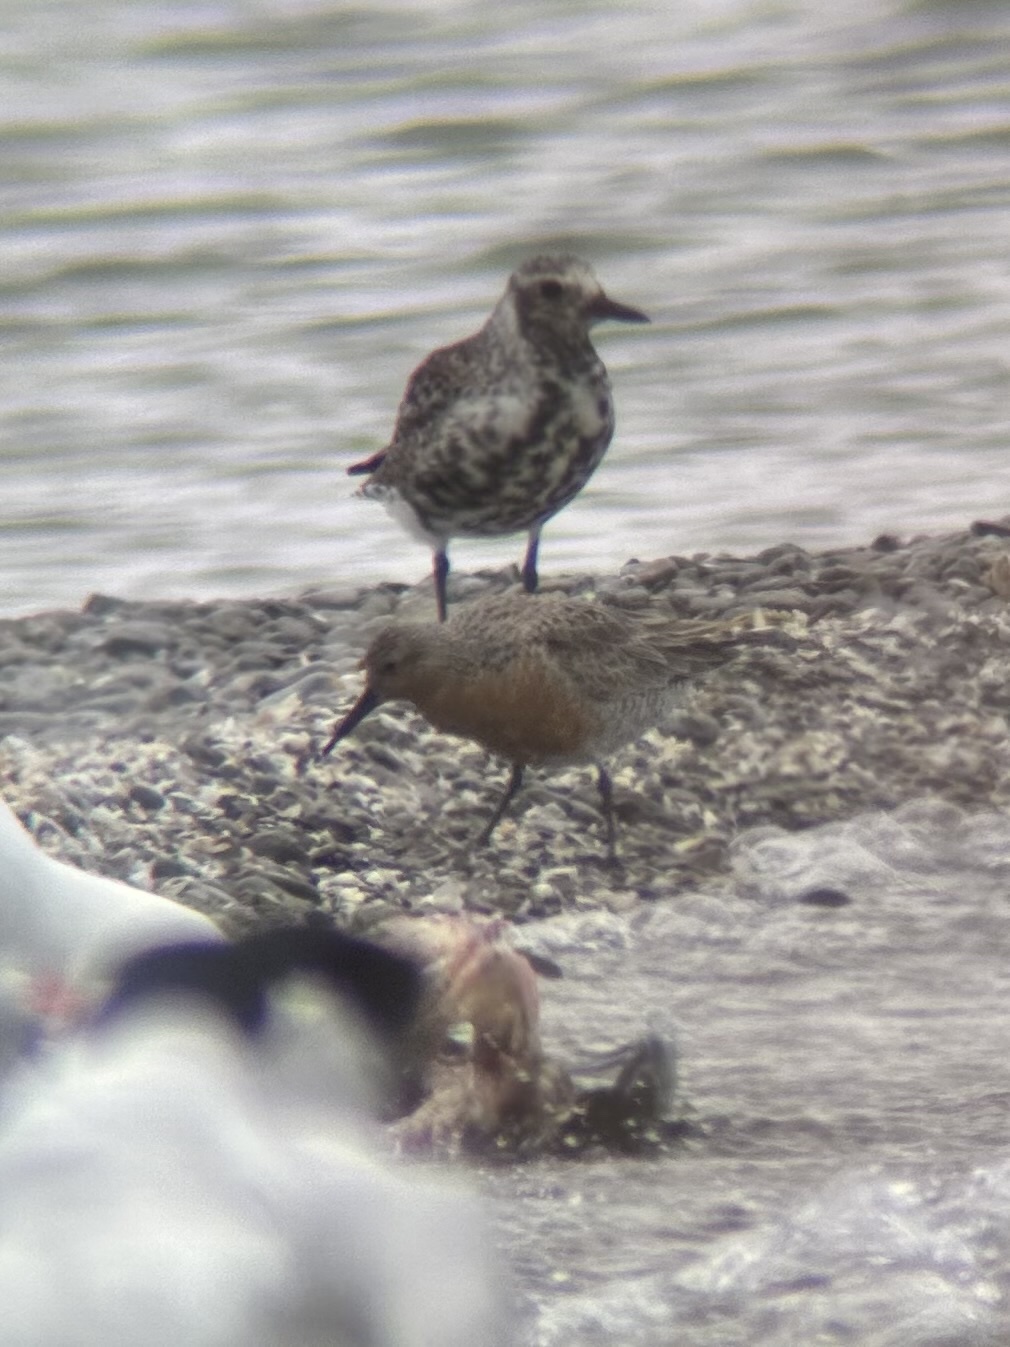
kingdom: Animalia
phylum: Chordata
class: Aves
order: Charadriiformes
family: Scolopacidae
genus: Calidris
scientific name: Calidris canutus
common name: Red knot
